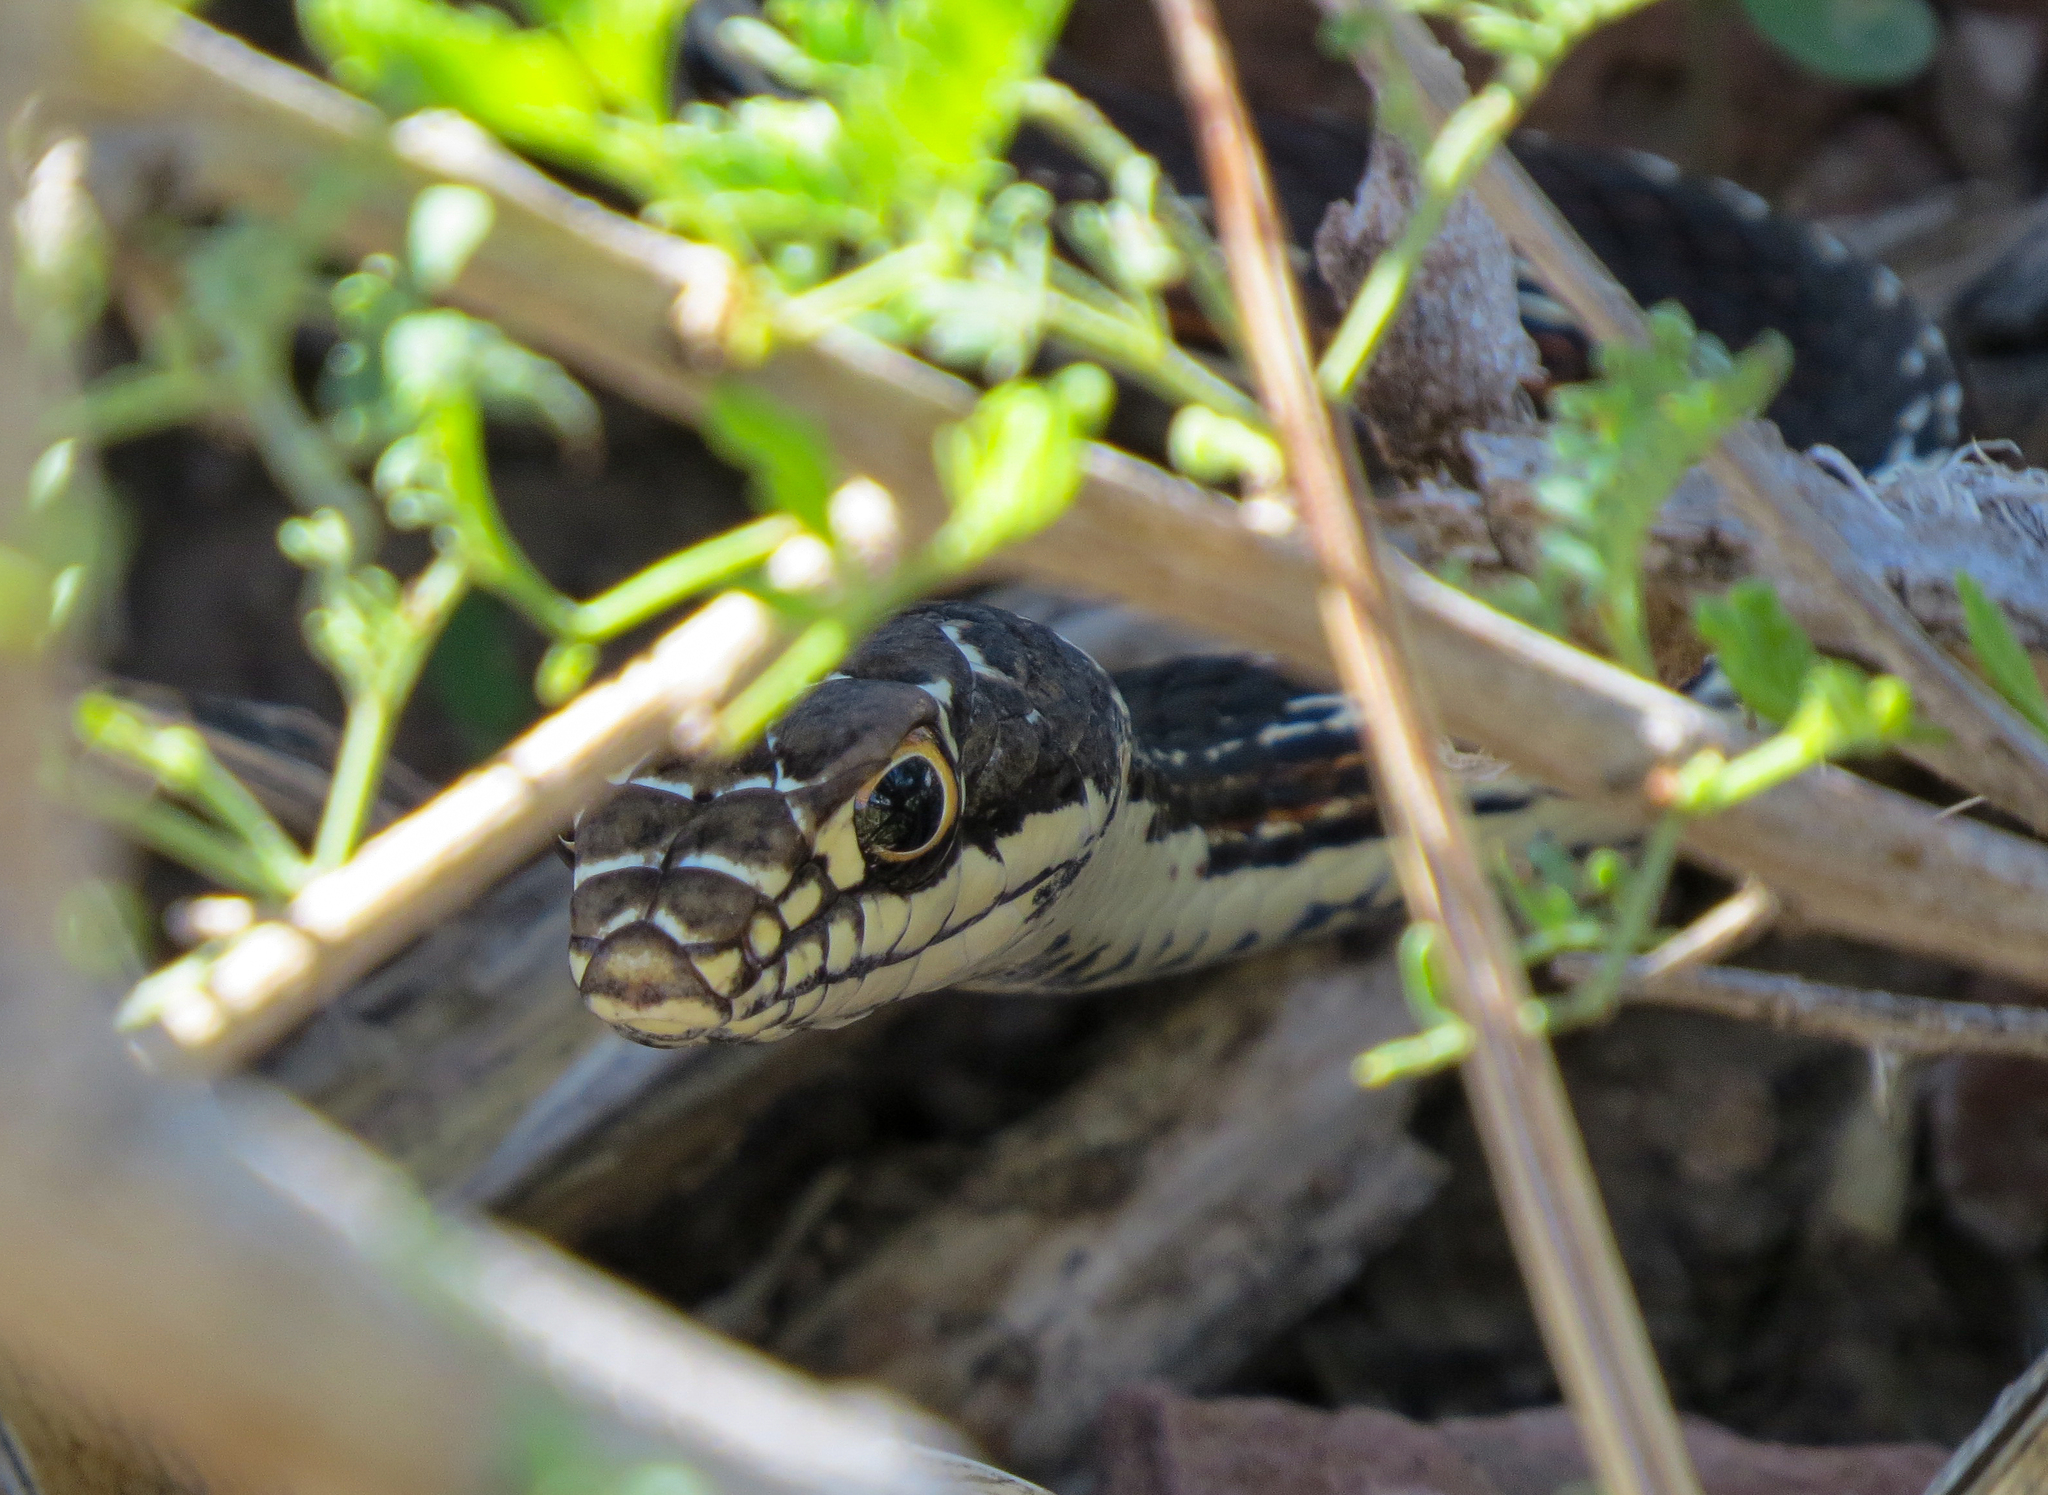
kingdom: Animalia
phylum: Chordata
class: Squamata
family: Colubridae
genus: Masticophis
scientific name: Masticophis taeniatus
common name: Striped whipsnake
